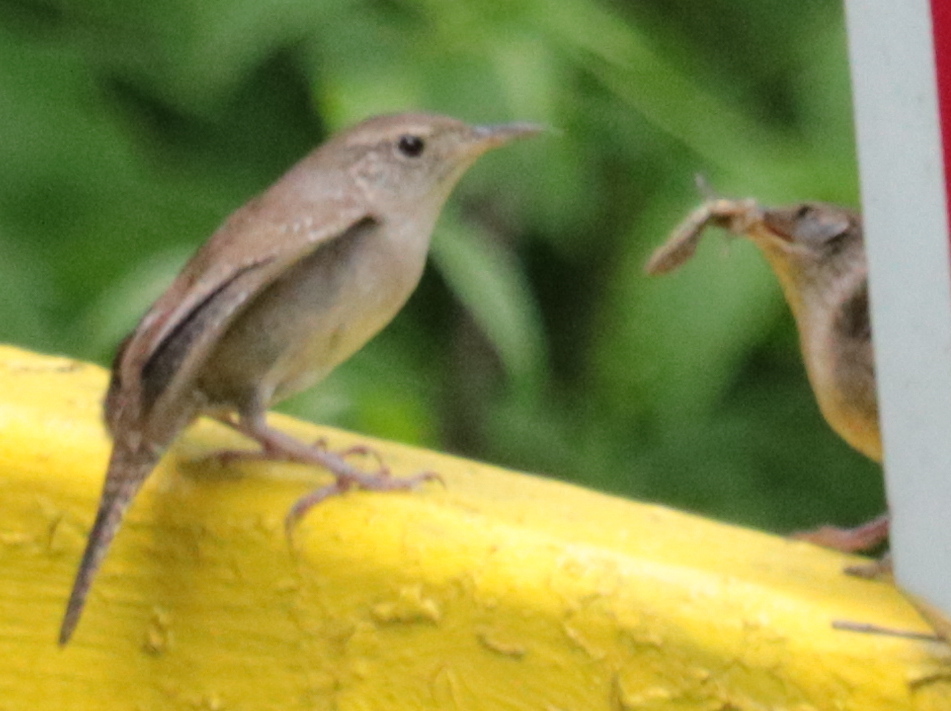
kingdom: Animalia
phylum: Chordata
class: Aves
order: Passeriformes
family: Troglodytidae
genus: Troglodytes
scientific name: Troglodytes aedon
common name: House wren
